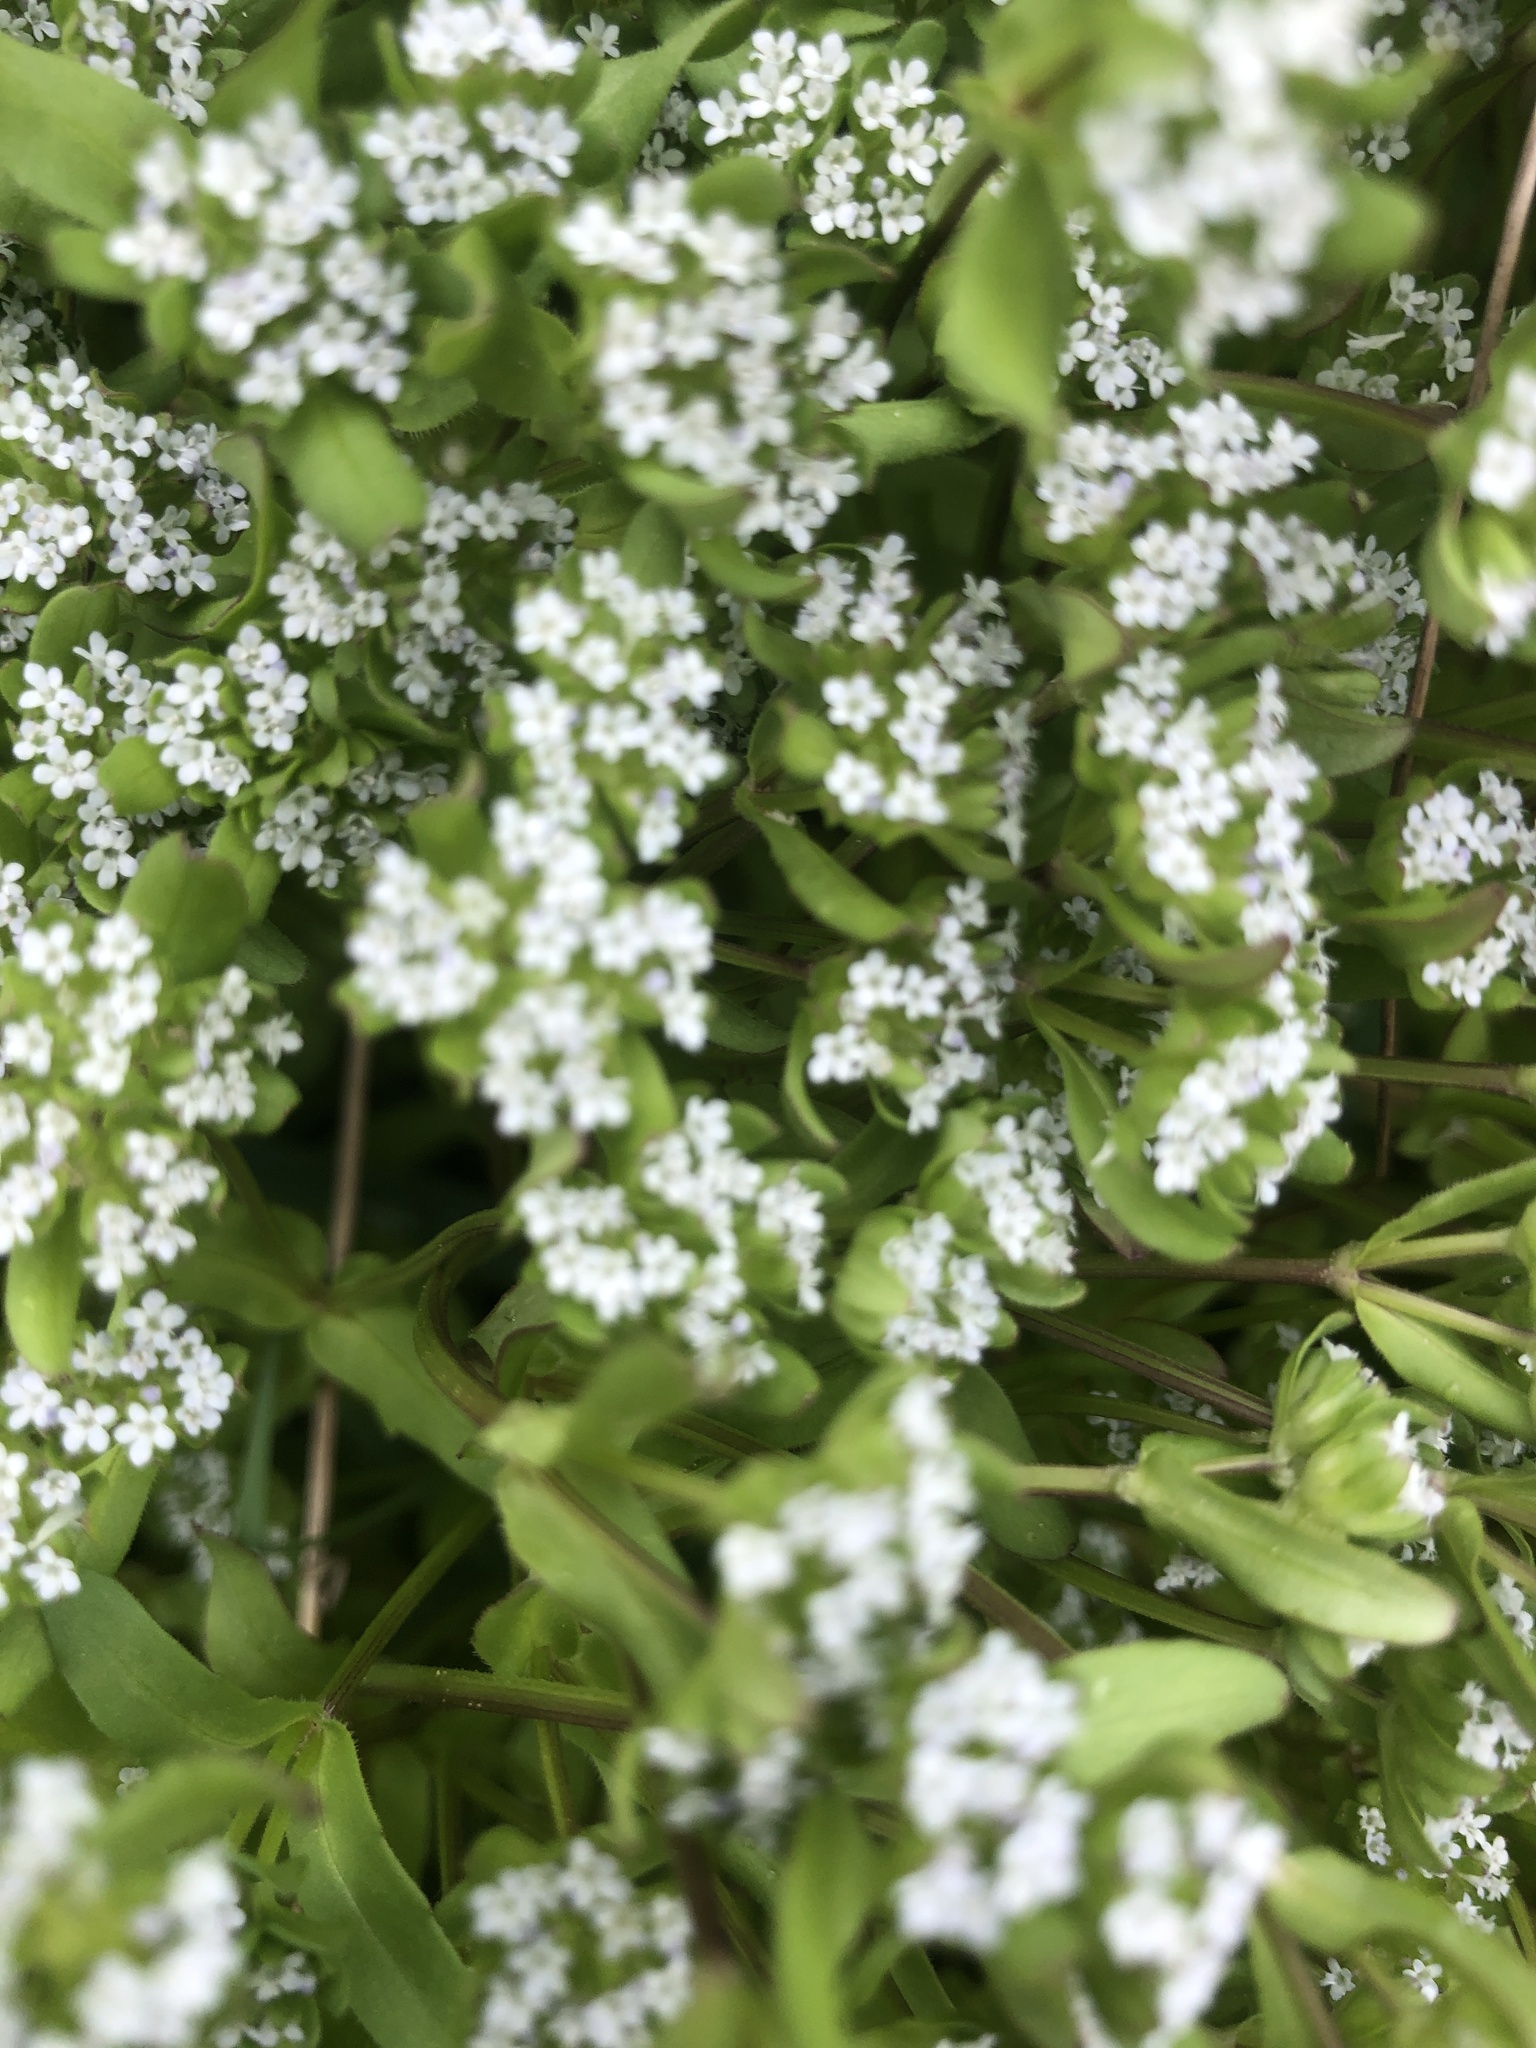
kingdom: Plantae
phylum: Tracheophyta
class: Magnoliopsida
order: Dipsacales
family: Caprifoliaceae
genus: Valerianella
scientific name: Valerianella locusta
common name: Common cornsalad
